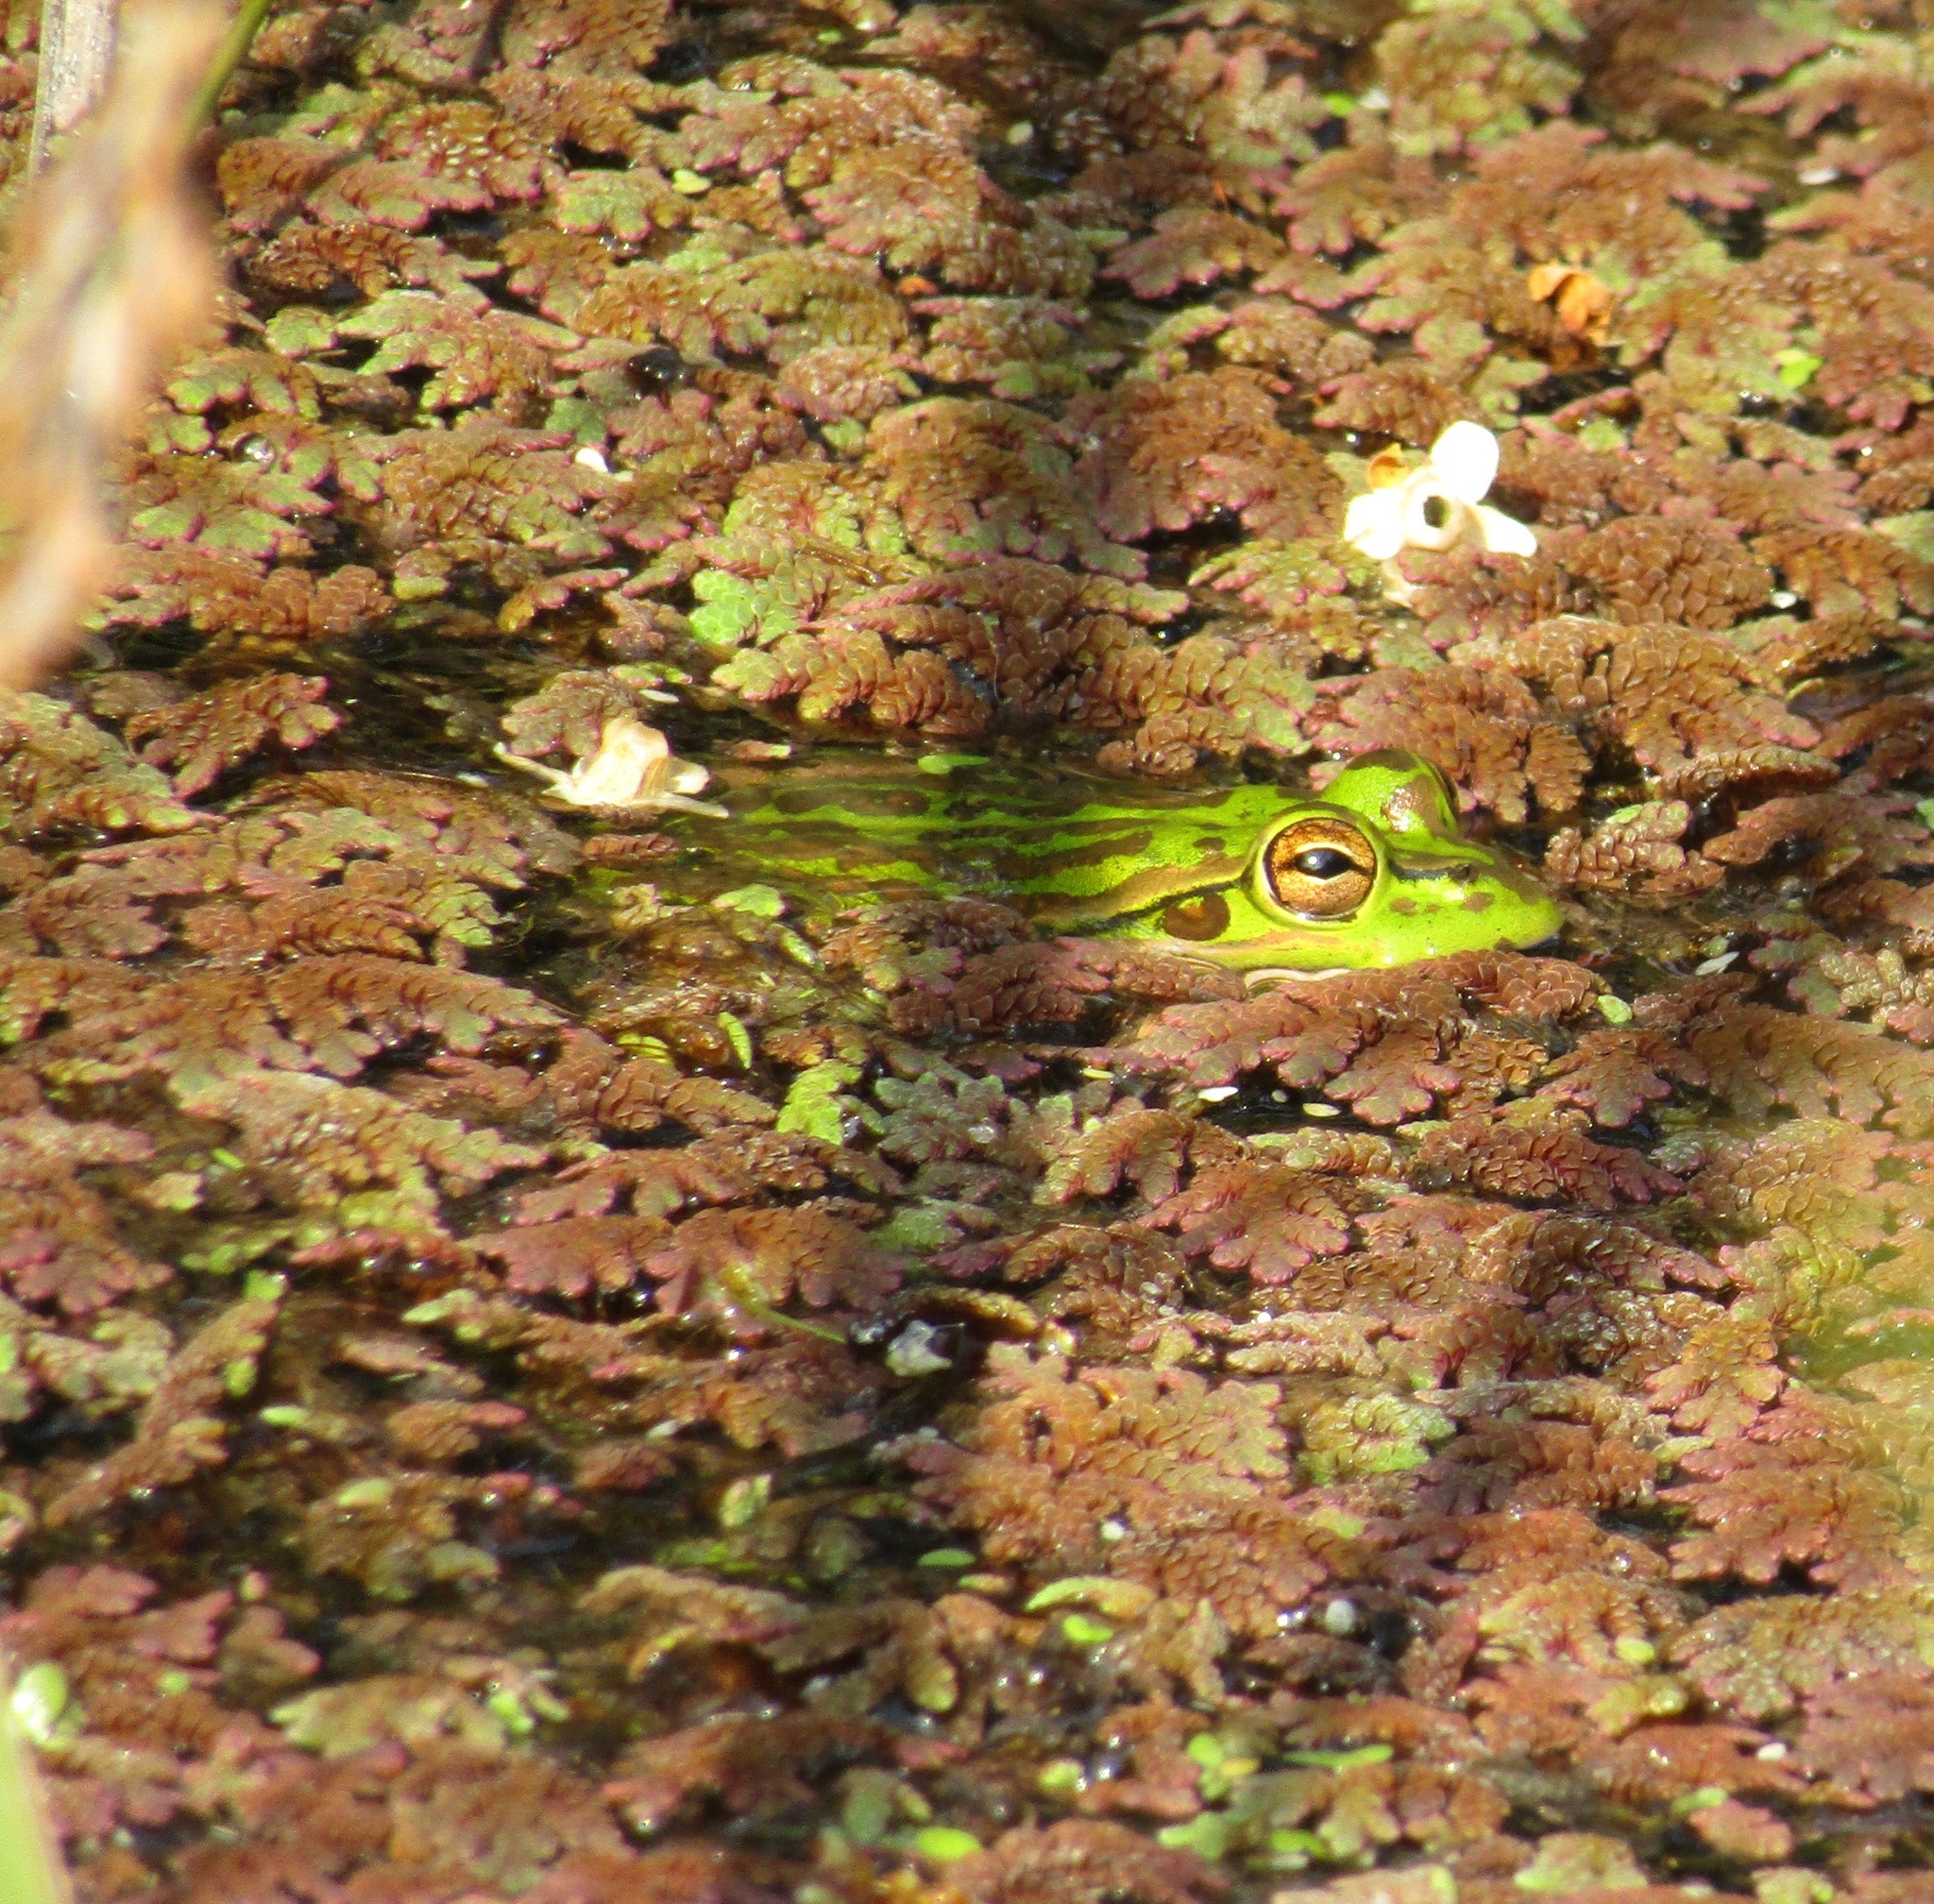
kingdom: Animalia
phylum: Chordata
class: Amphibia
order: Anura
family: Pelodryadidae
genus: Ranoidea
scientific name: Ranoidea aurea
